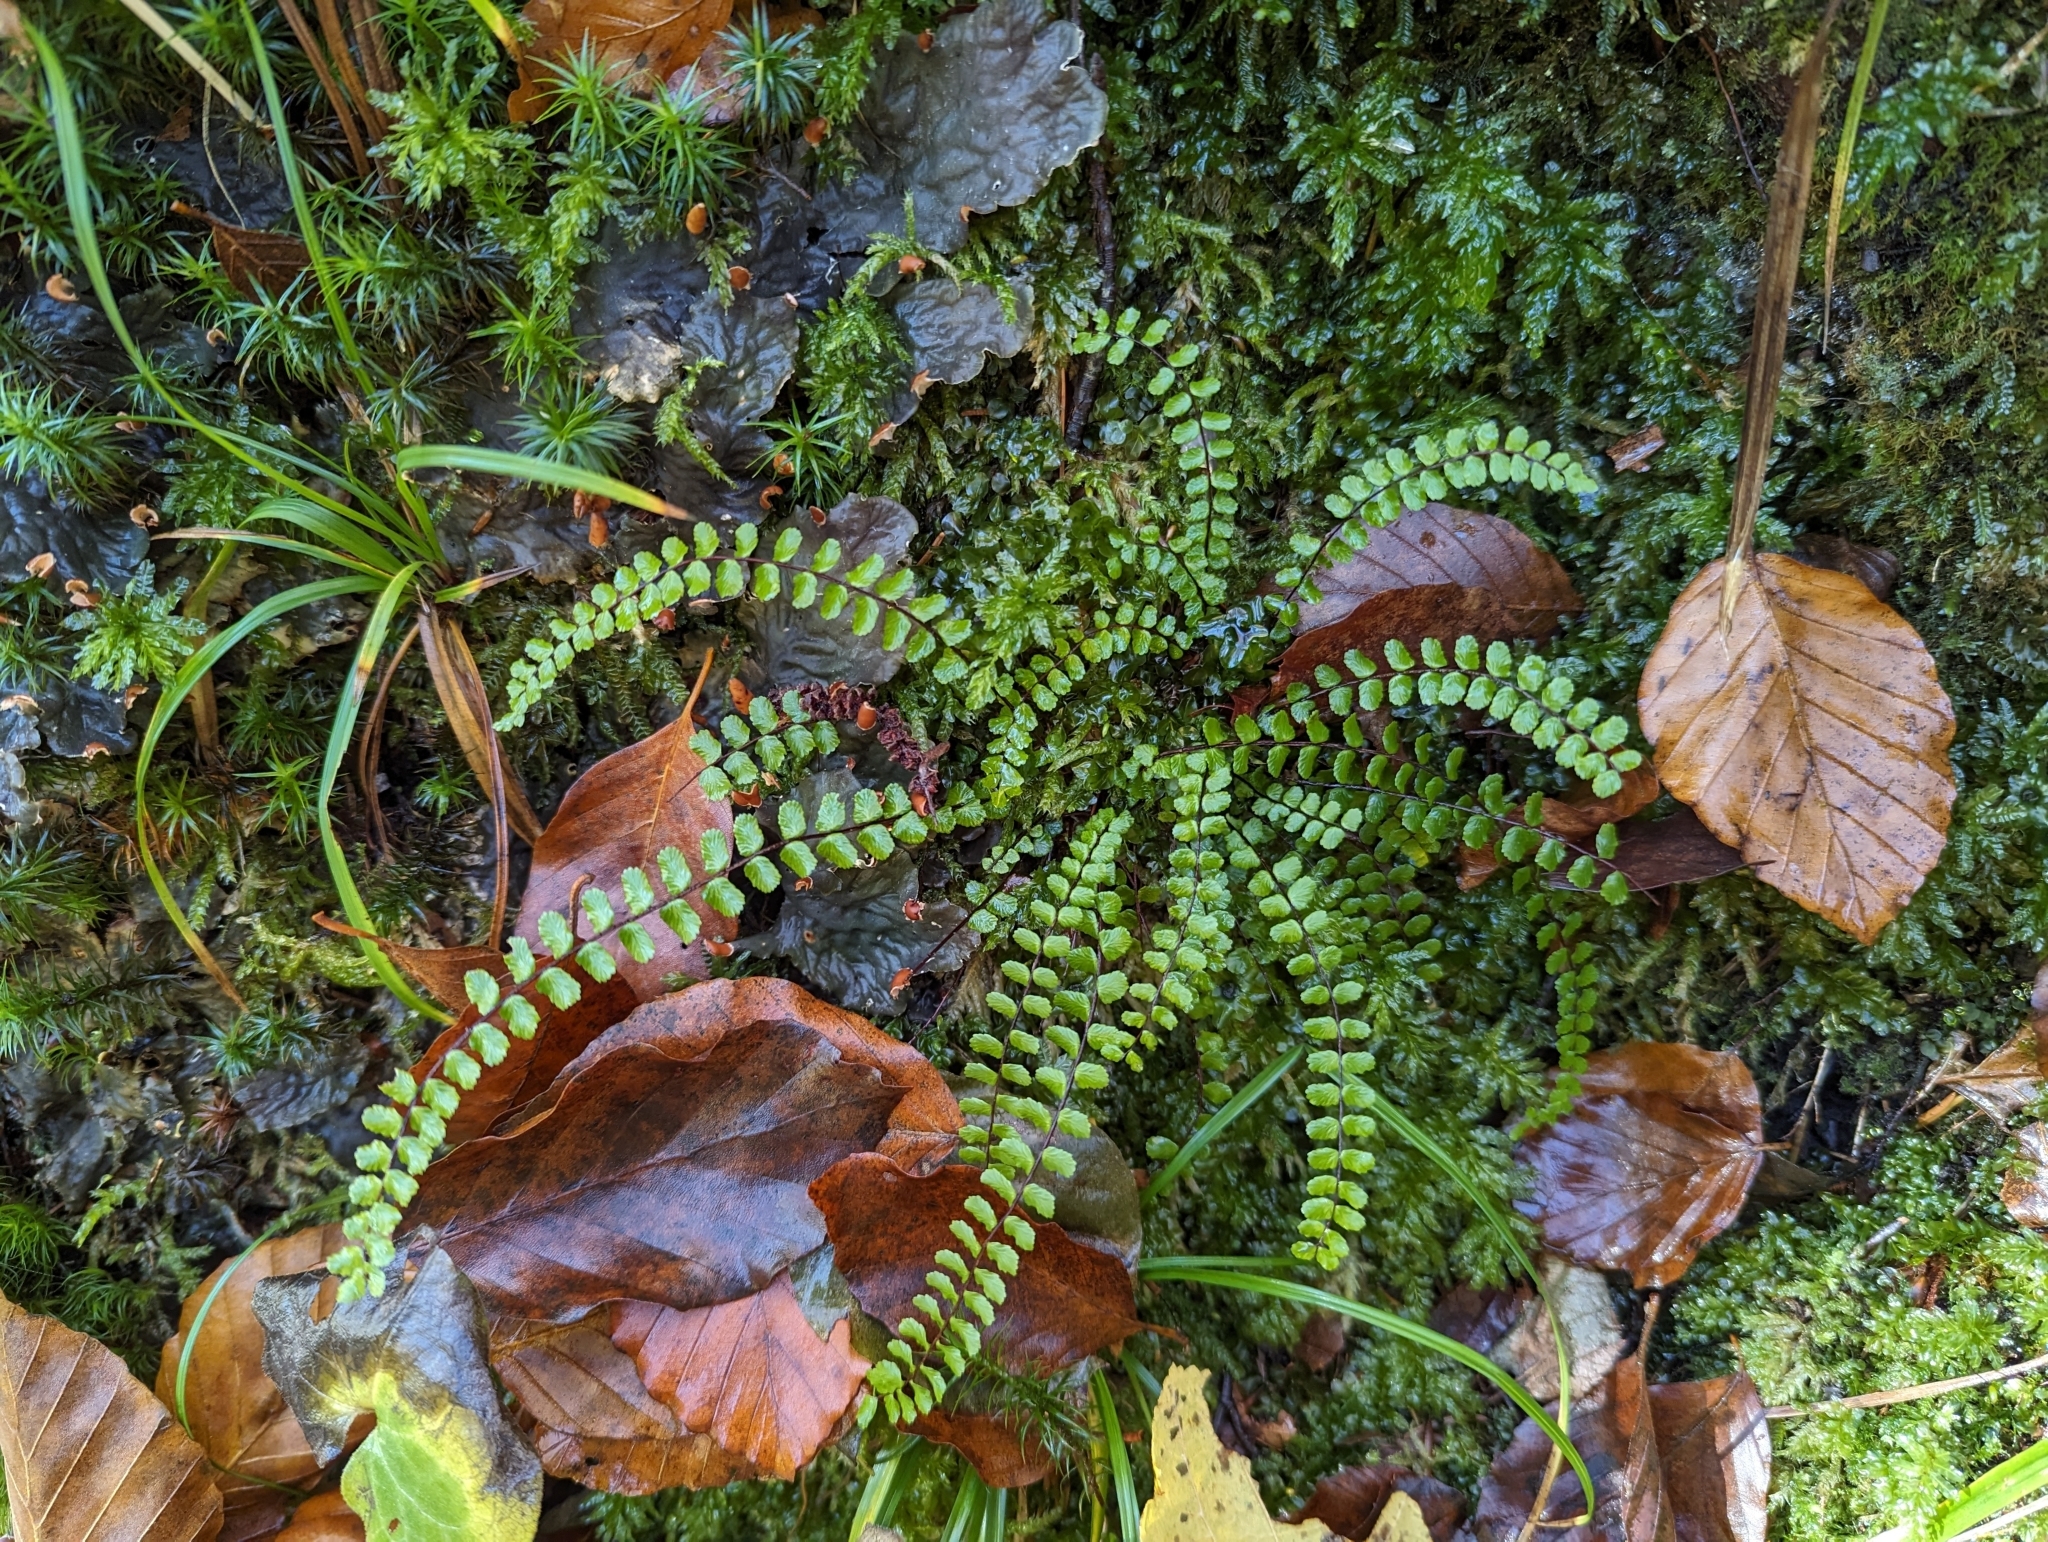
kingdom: Plantae
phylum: Tracheophyta
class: Polypodiopsida
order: Polypodiales
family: Aspleniaceae
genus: Asplenium
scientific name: Asplenium trichomanes
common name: Maidenhair spleenwort
